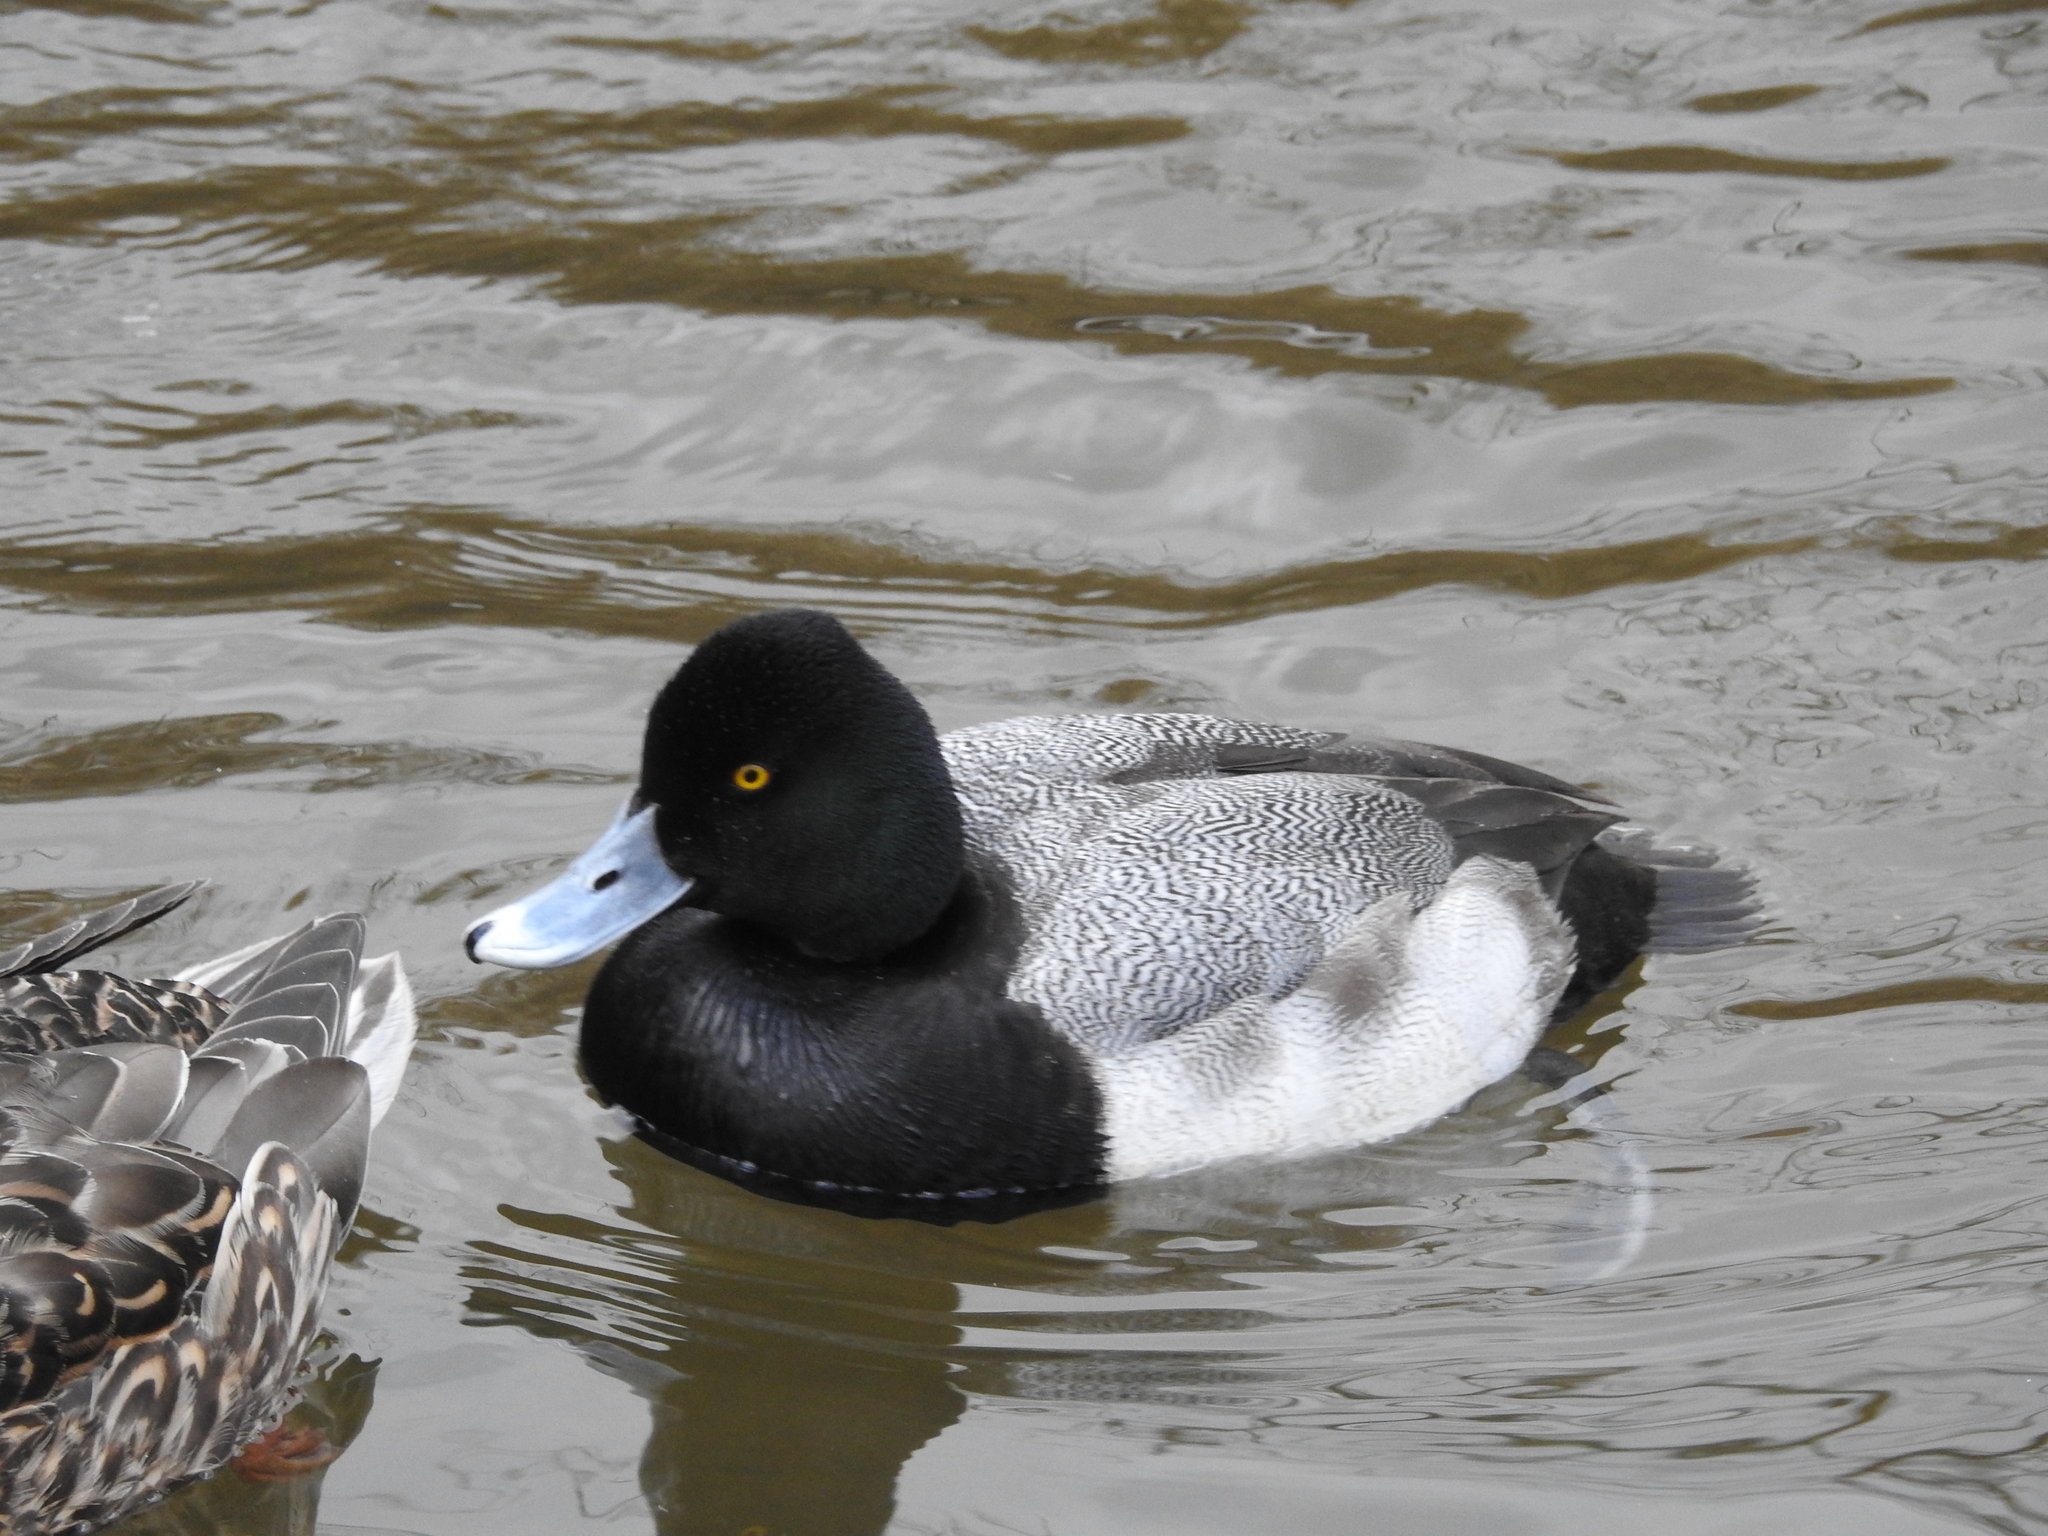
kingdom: Animalia
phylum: Chordata
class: Aves
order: Anseriformes
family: Anatidae
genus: Aythya
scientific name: Aythya affinis
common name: Lesser scaup
